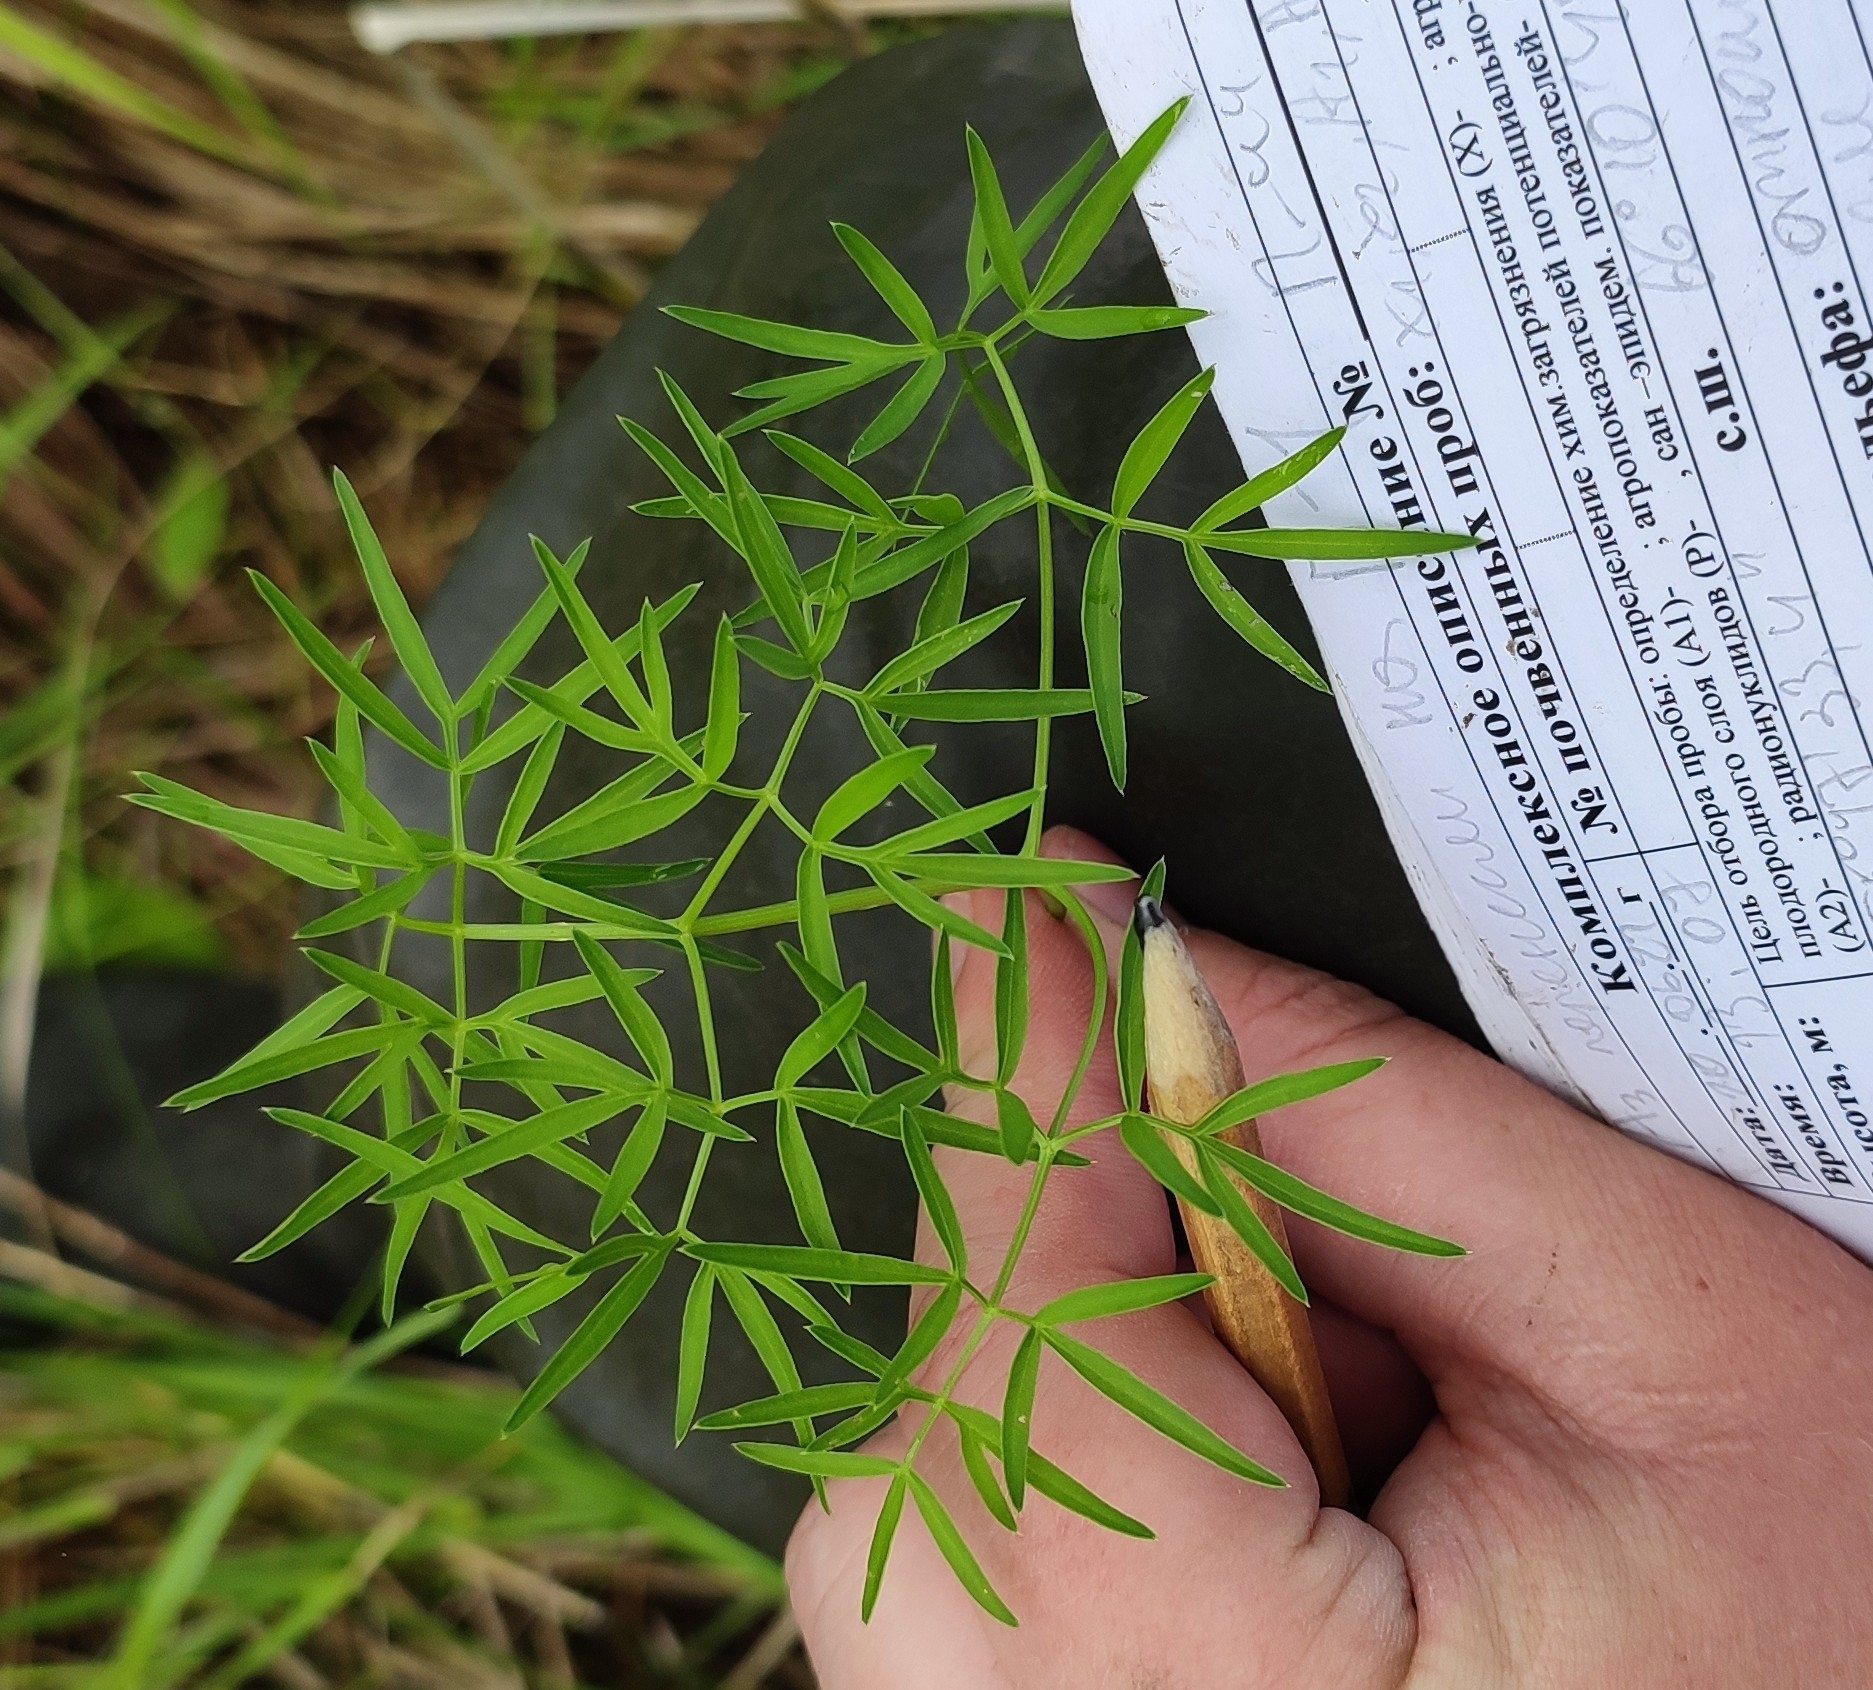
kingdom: Plantae
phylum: Tracheophyta
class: Magnoliopsida
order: Apiales
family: Apiaceae
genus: Cenolophium
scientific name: Cenolophium fischeri
